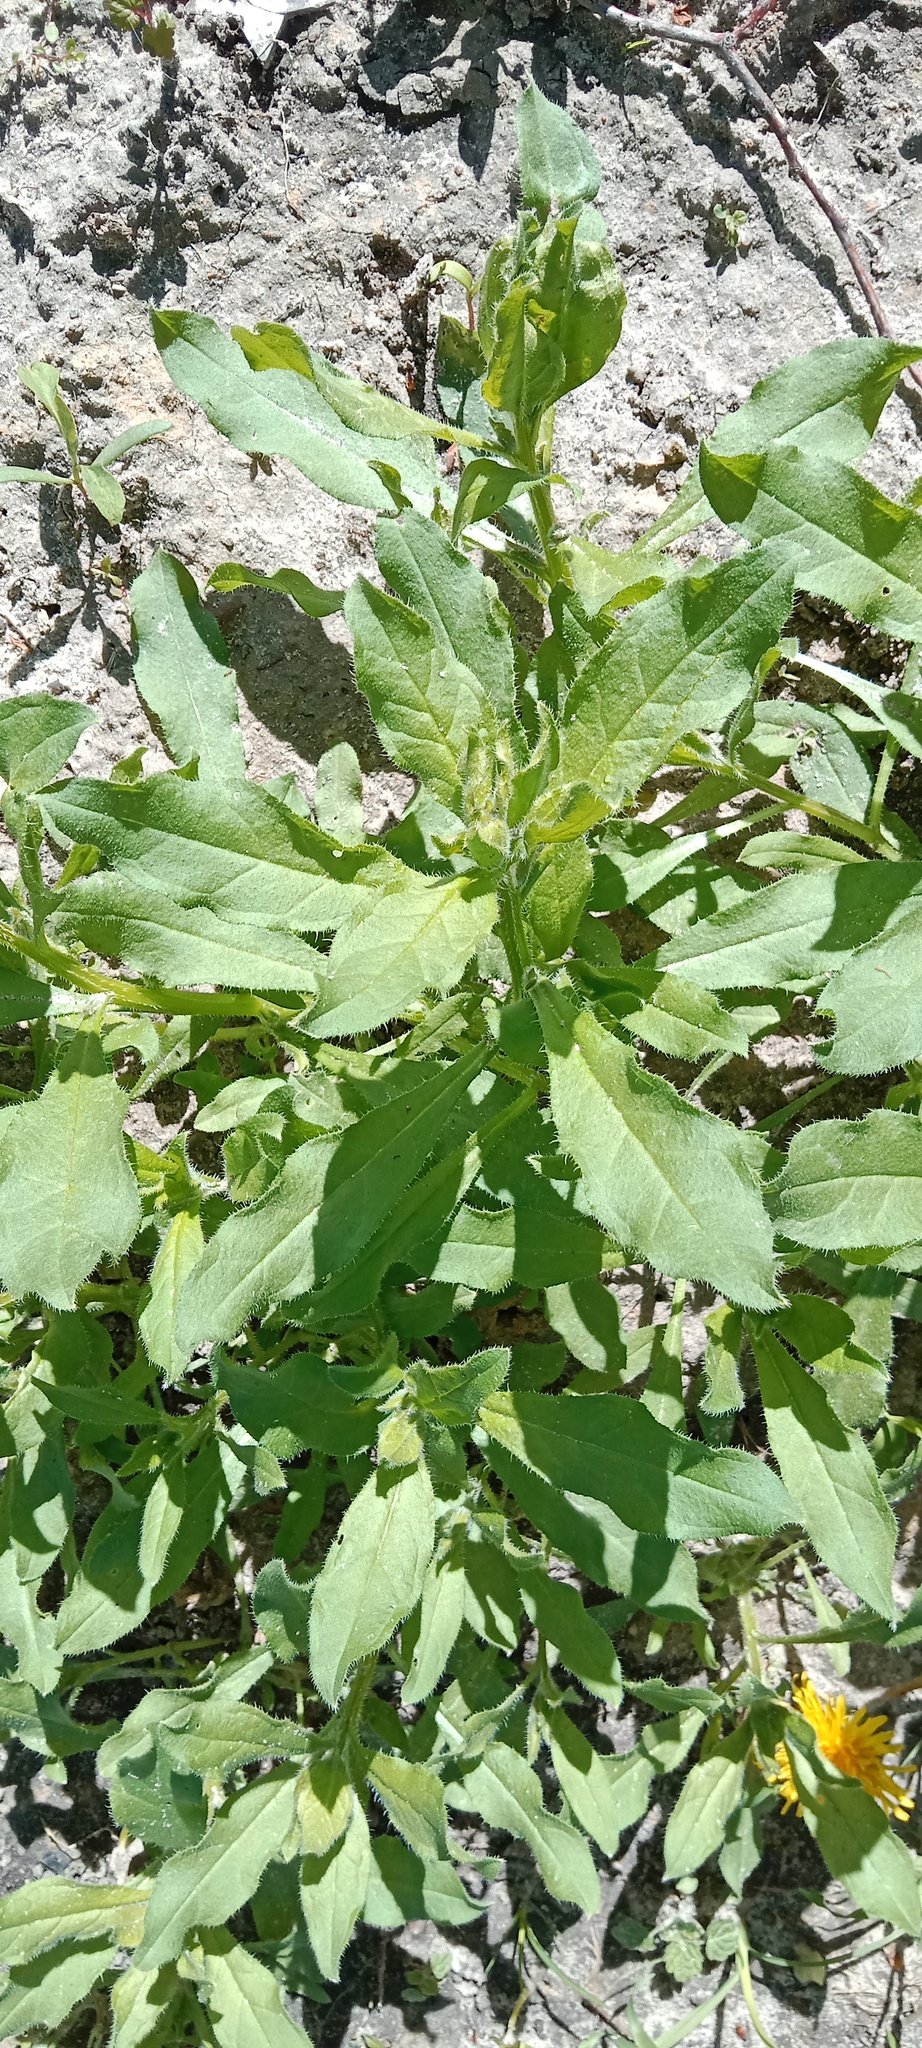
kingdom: Plantae
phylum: Tracheophyta
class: Magnoliopsida
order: Boraginales
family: Boraginaceae
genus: Asperugo
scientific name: Asperugo procumbens
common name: Madwort
